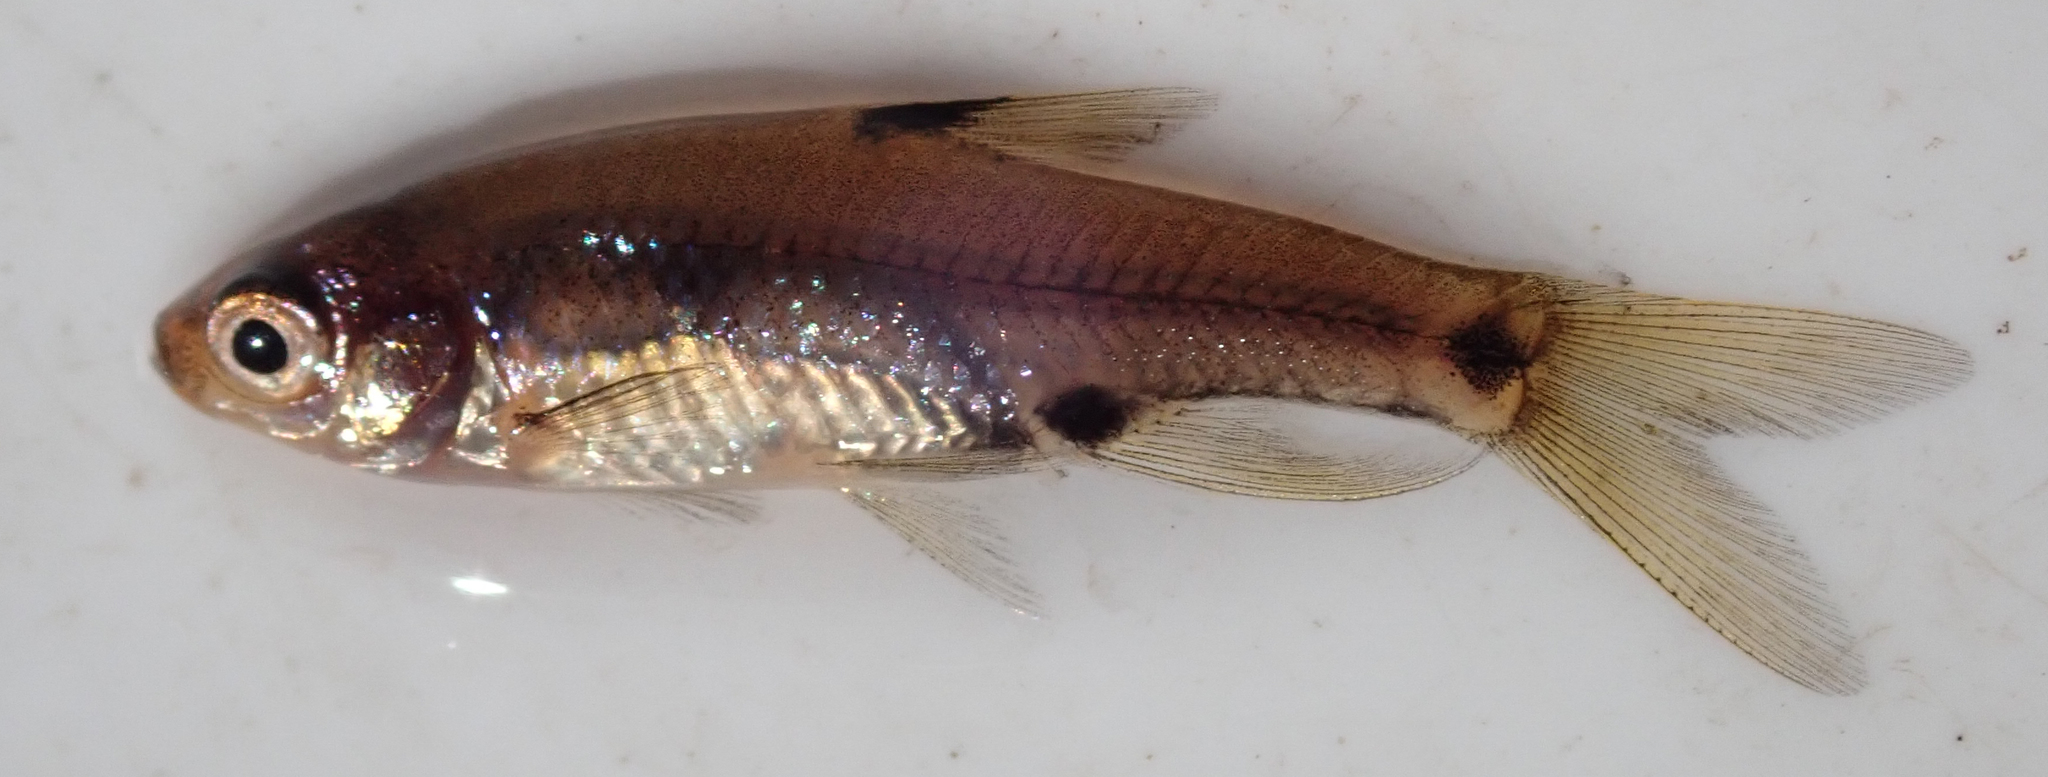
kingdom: Animalia
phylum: Chordata
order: Cypriniformes
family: Cyprinidae
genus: Enteromius
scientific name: Enteromius haasianus
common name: Sickle-fin barb
